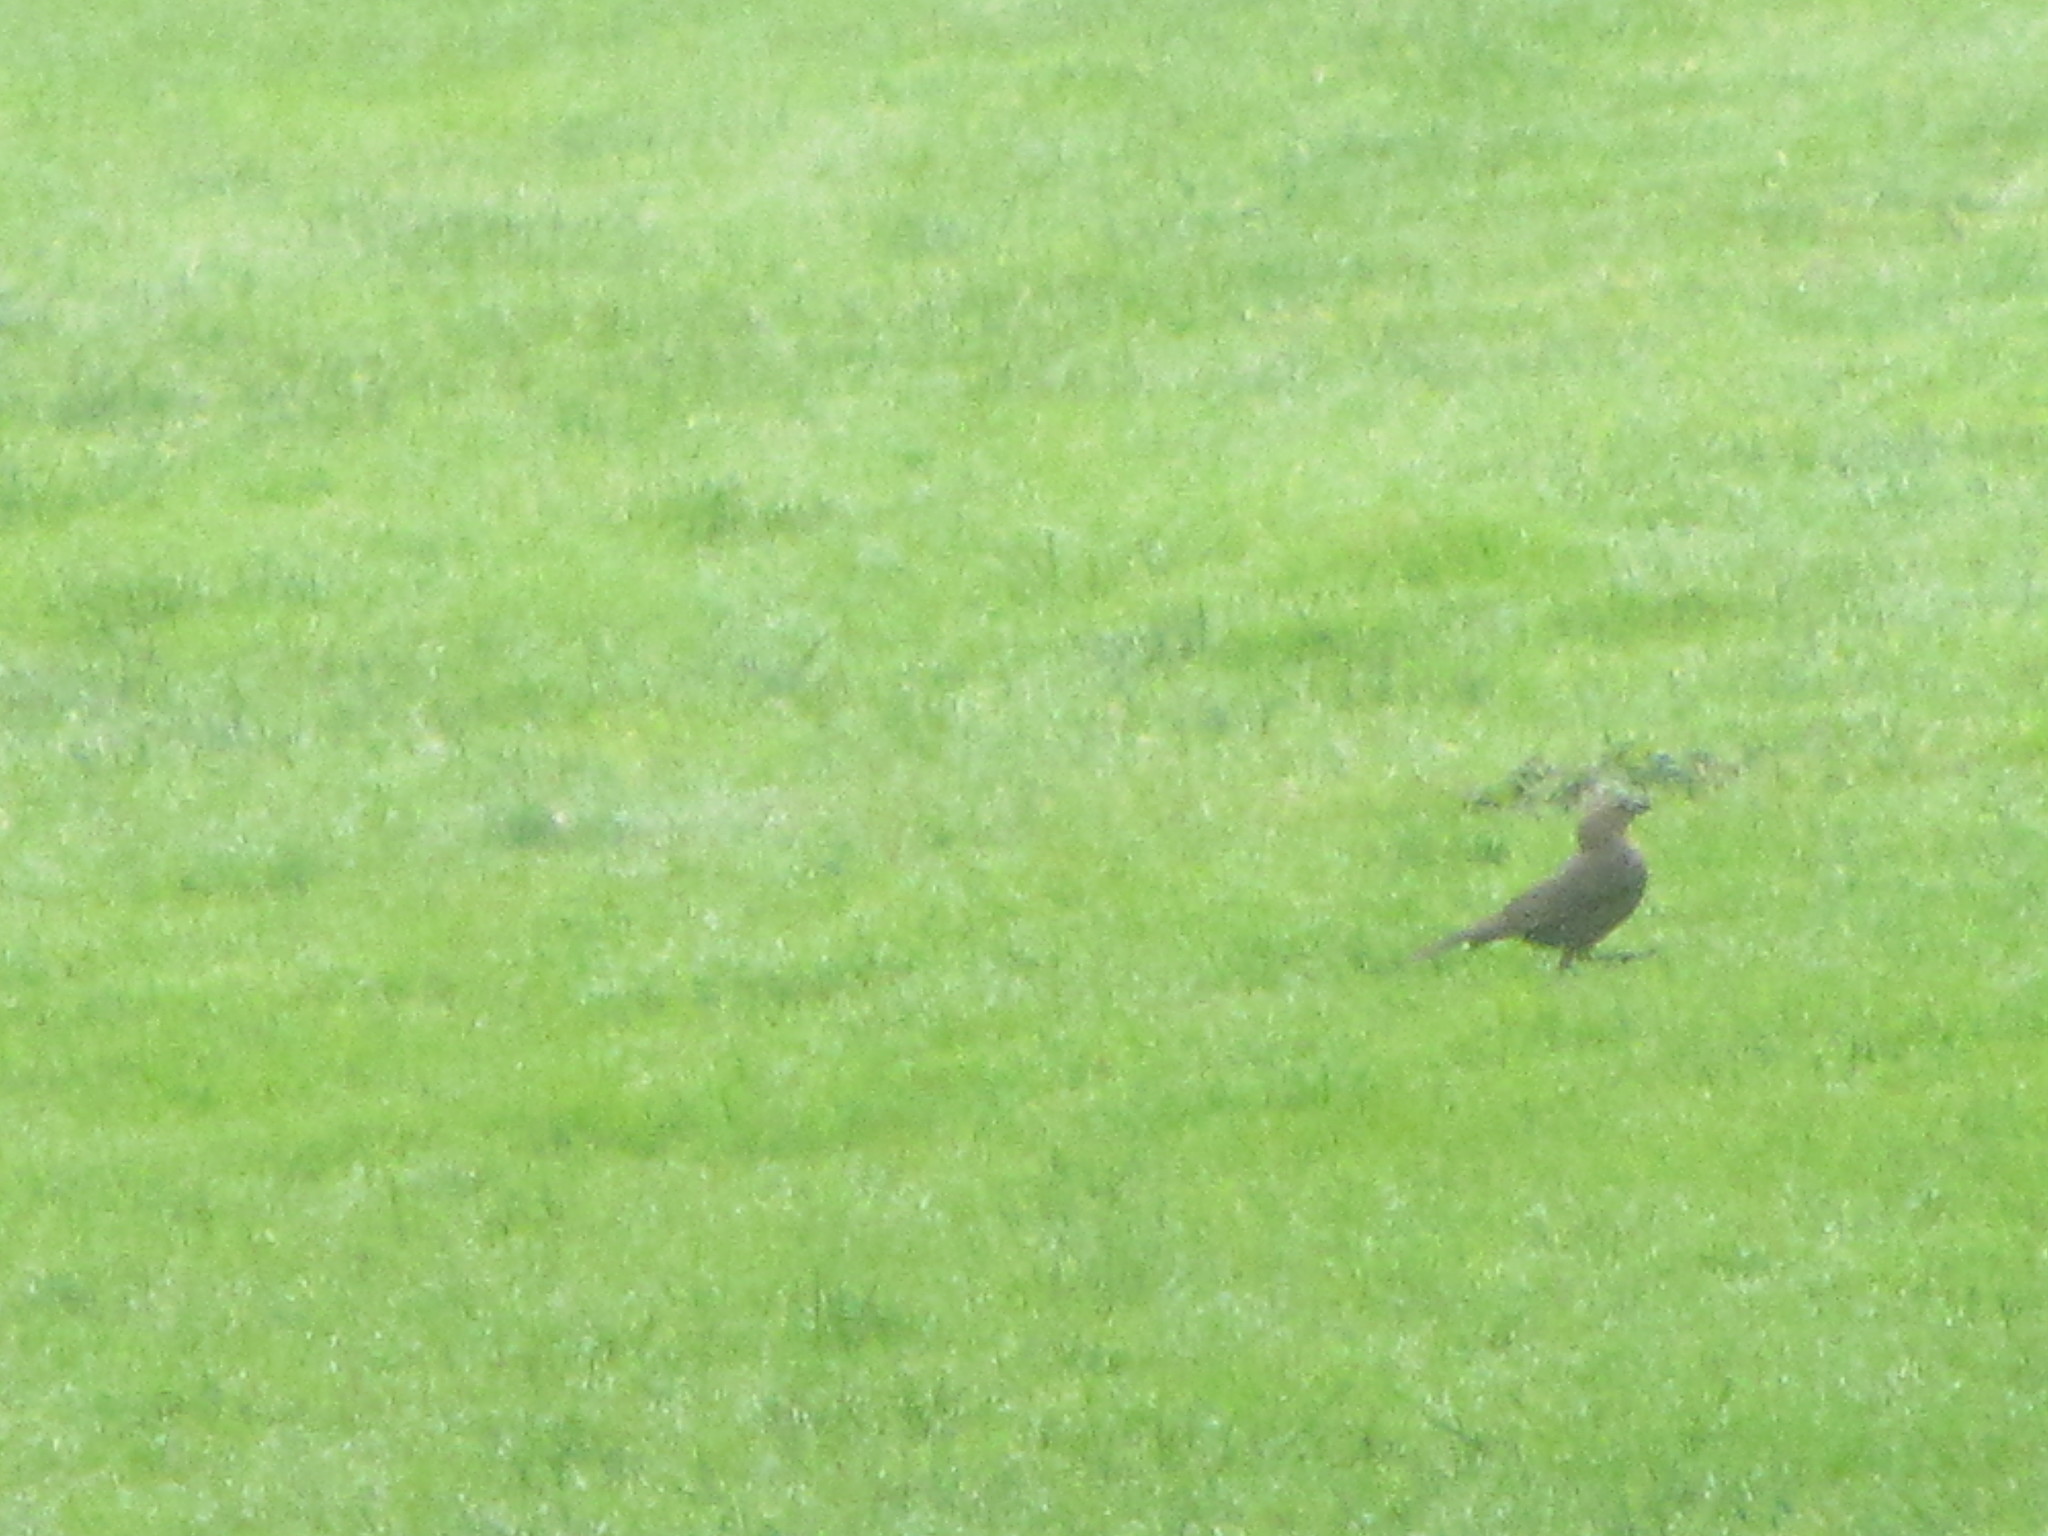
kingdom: Animalia
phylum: Chordata
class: Aves
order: Passeriformes
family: Icteridae
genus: Euphagus
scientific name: Euphagus cyanocephalus
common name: Brewer's blackbird
